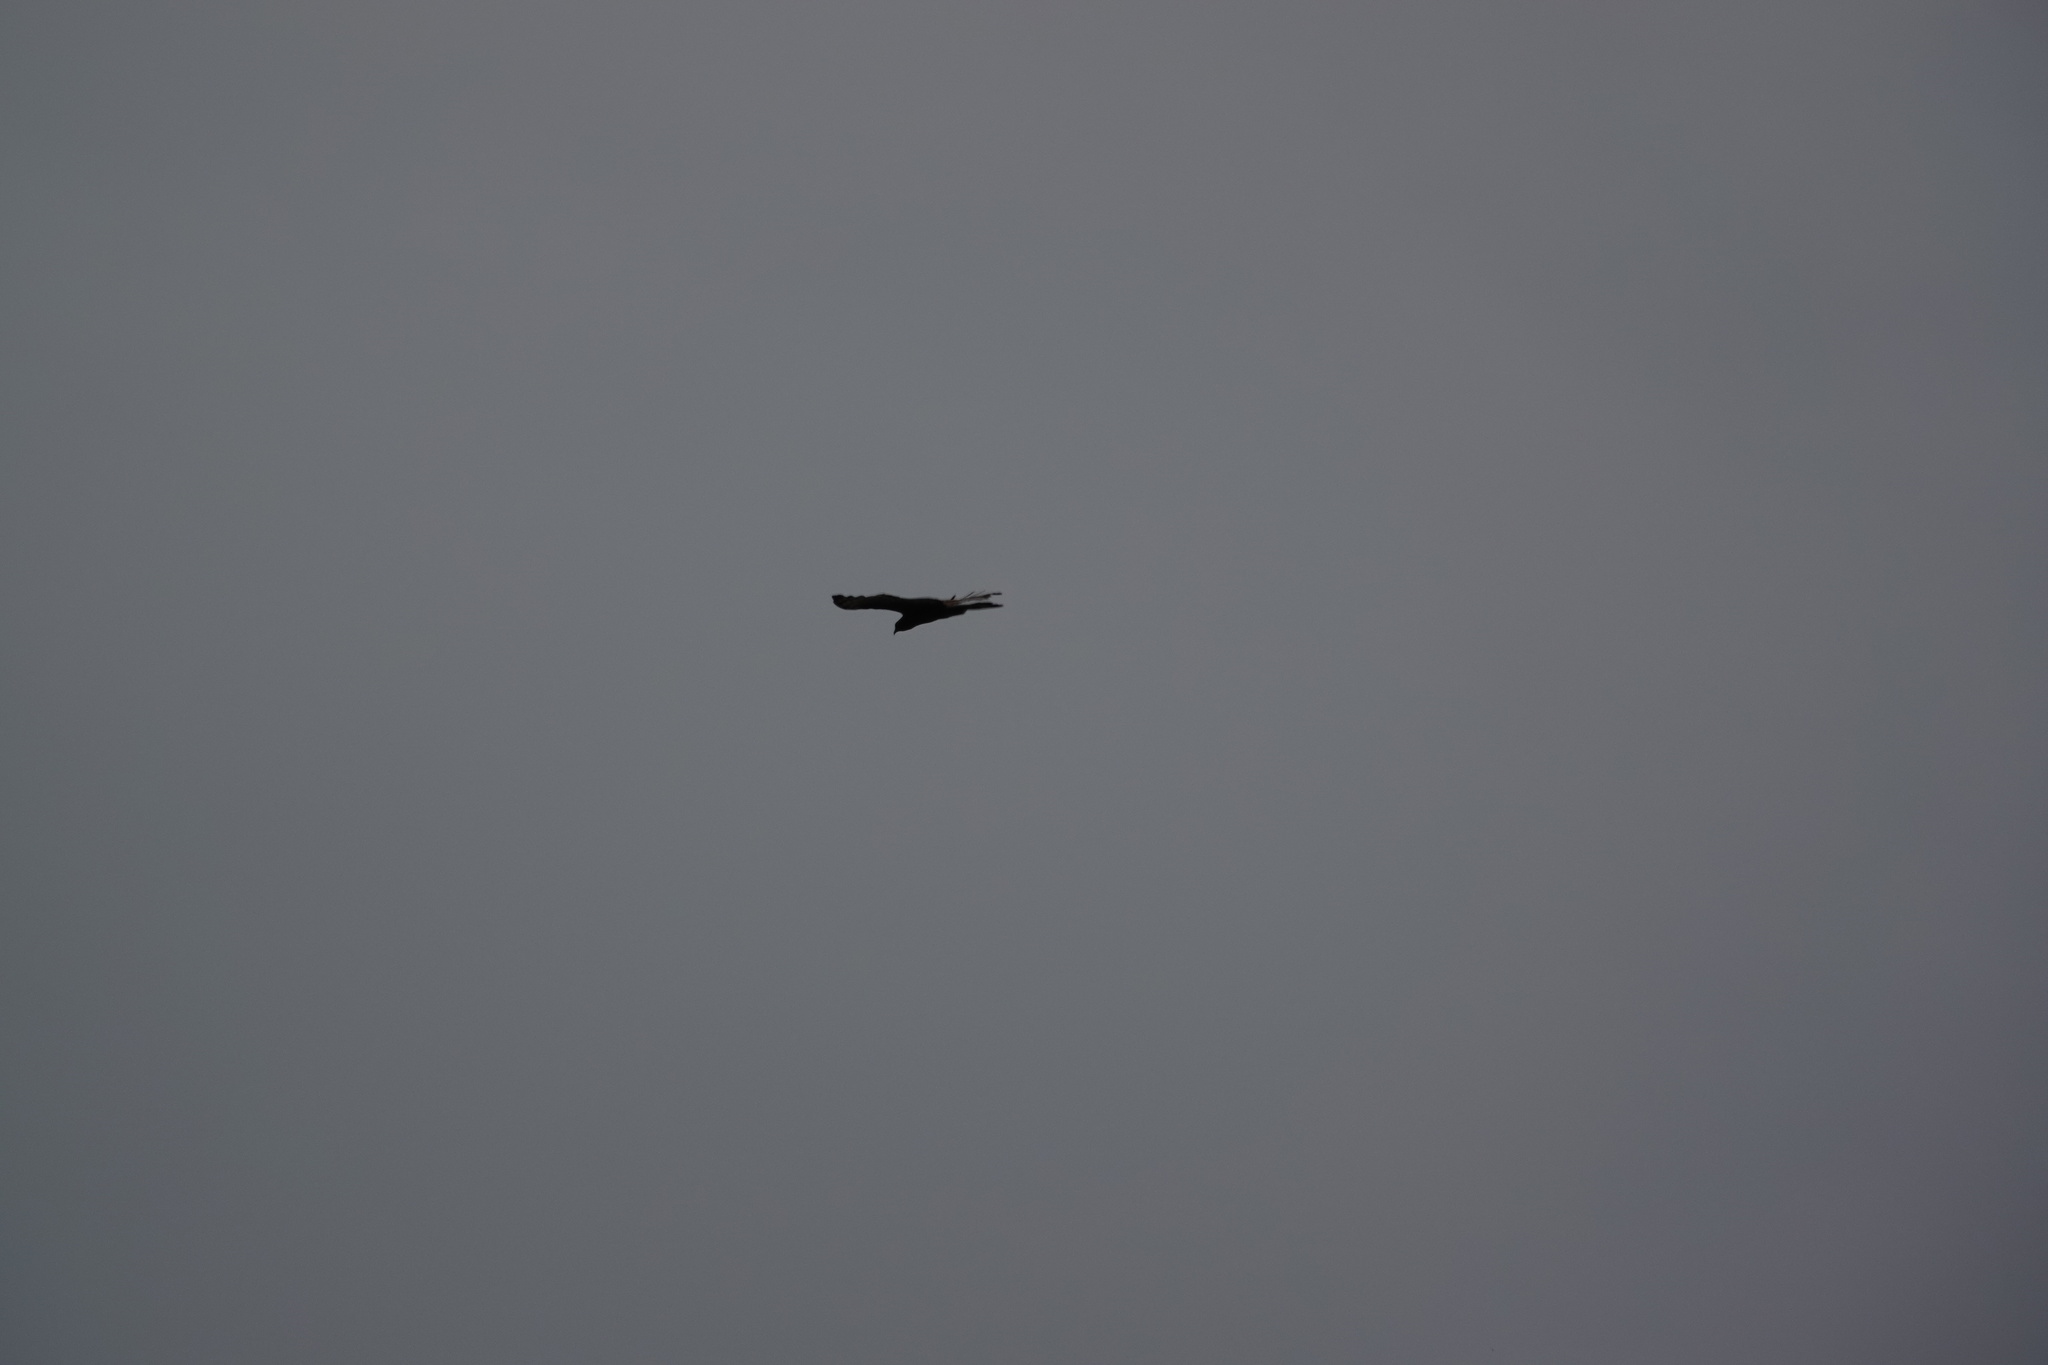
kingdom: Animalia
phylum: Chordata
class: Aves
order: Accipitriformes
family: Accipitridae
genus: Pernis
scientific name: Pernis ptilorhynchus
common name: Crested honey buzzard
